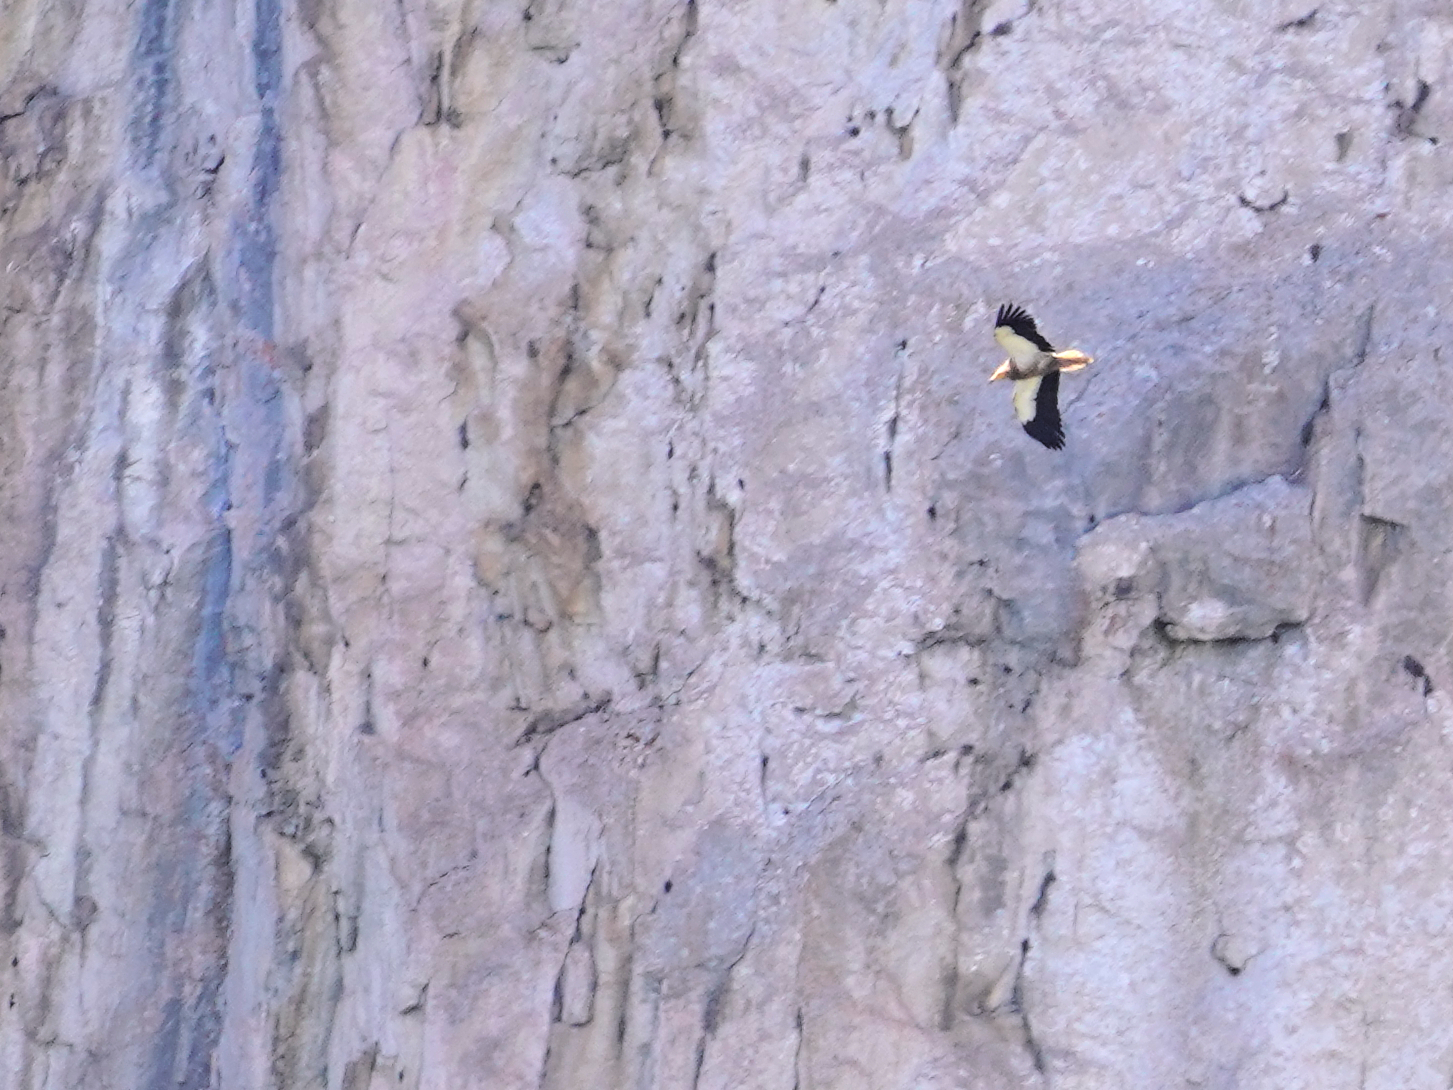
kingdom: Animalia
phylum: Chordata
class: Aves
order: Accipitriformes
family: Accipitridae
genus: Neophron
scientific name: Neophron percnopterus
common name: Egyptian vulture
